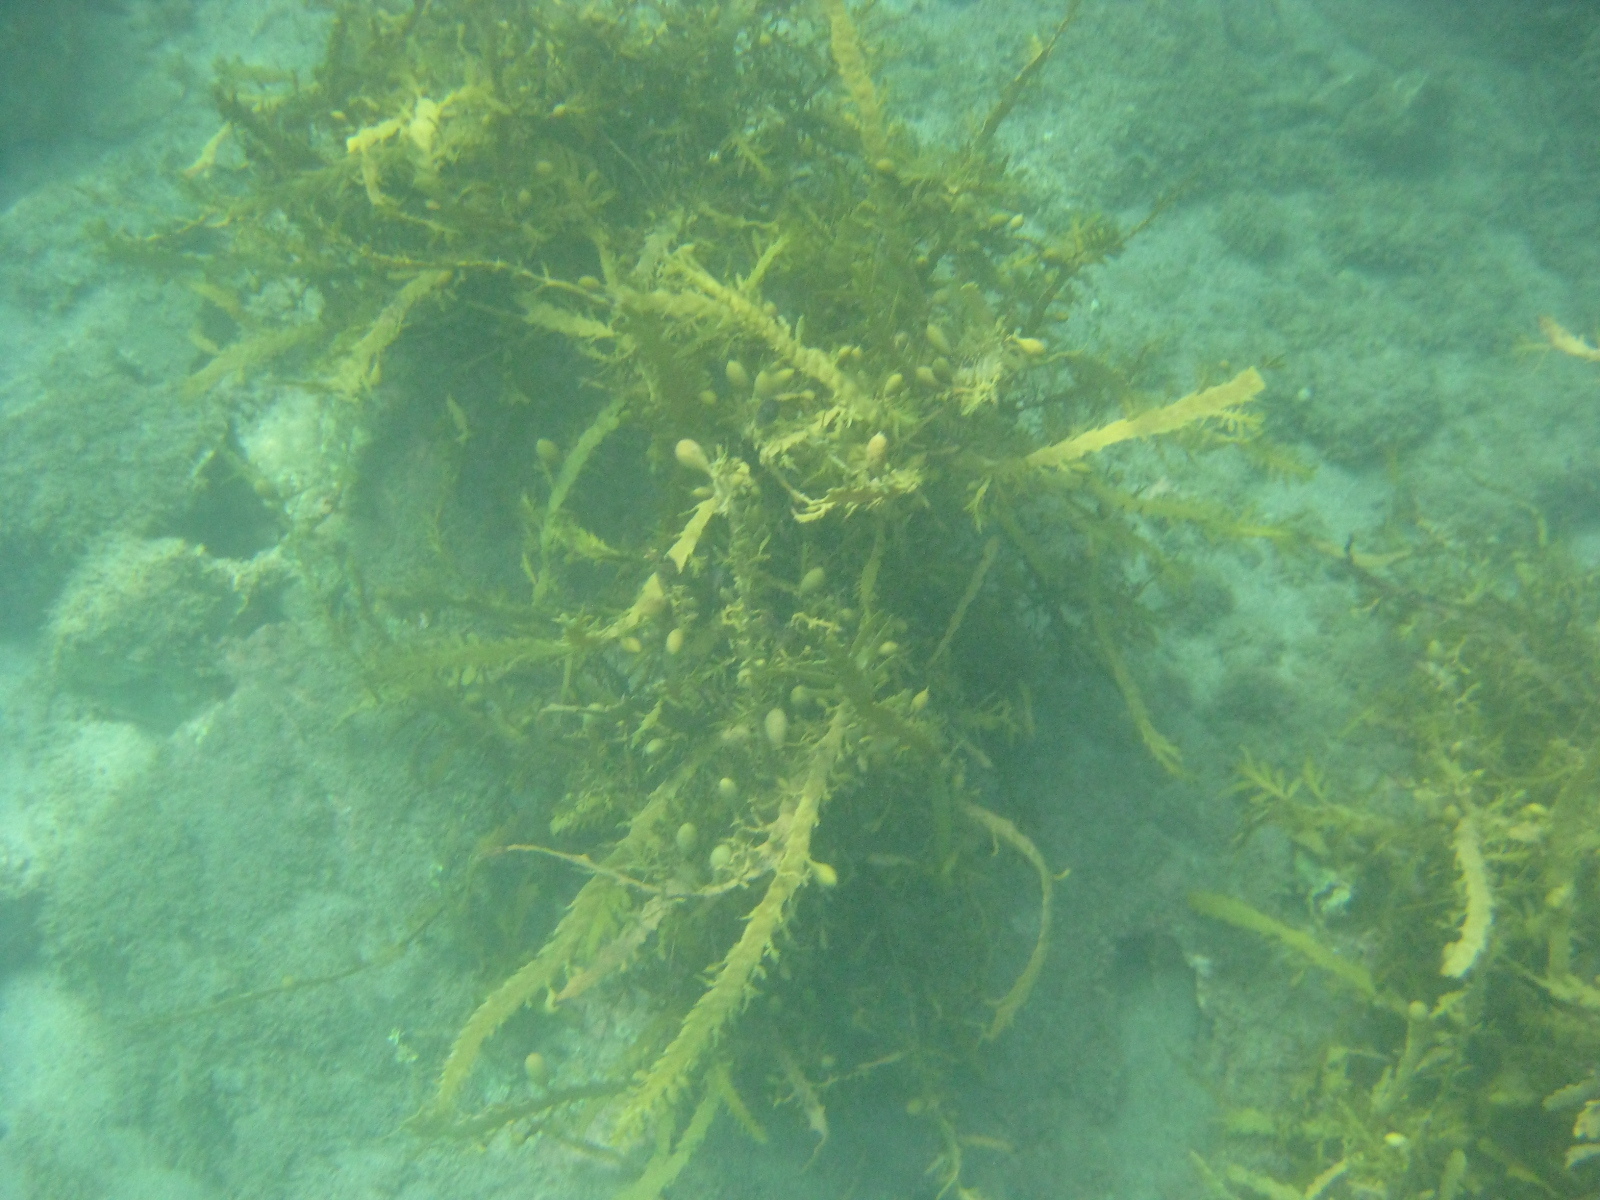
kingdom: Chromista
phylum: Ochrophyta
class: Phaeophyceae
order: Fucales
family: Sargassaceae
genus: Carpophyllum
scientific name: Carpophyllum maschalocarpum
